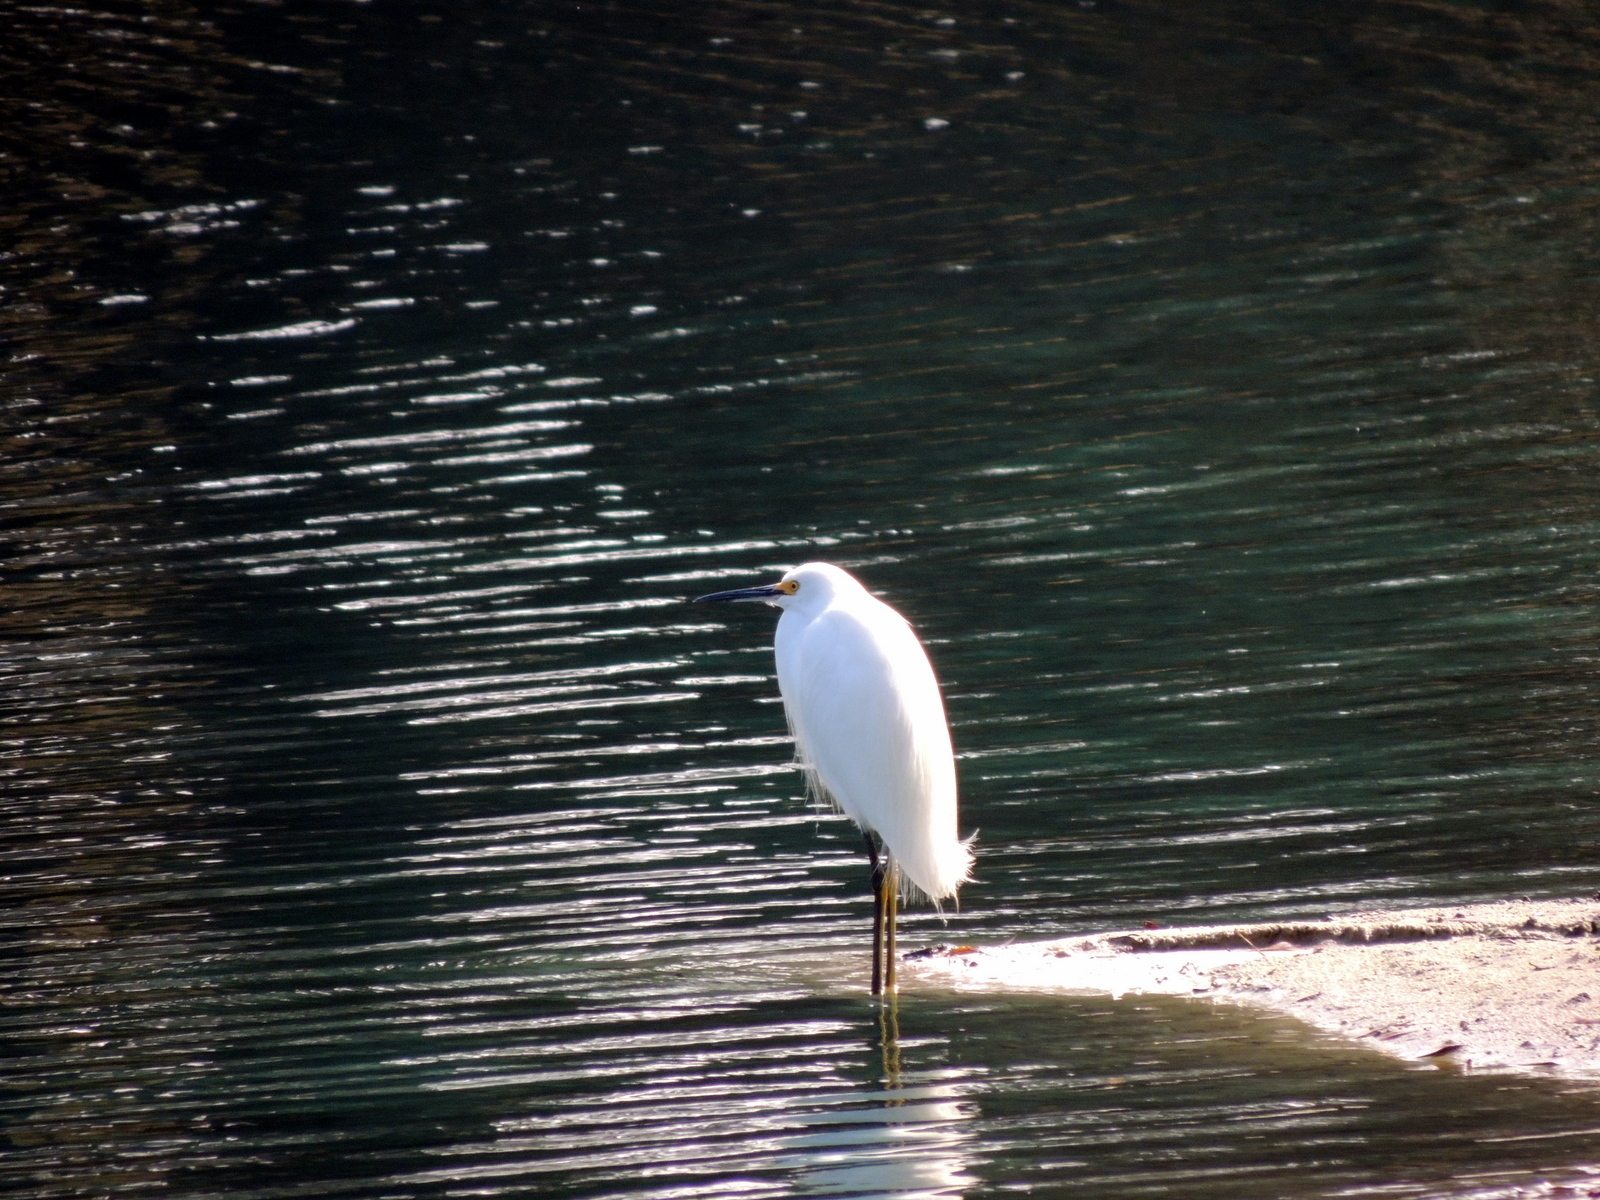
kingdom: Animalia
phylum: Chordata
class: Aves
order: Pelecaniformes
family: Ardeidae
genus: Egretta
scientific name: Egretta thula
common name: Snowy egret
